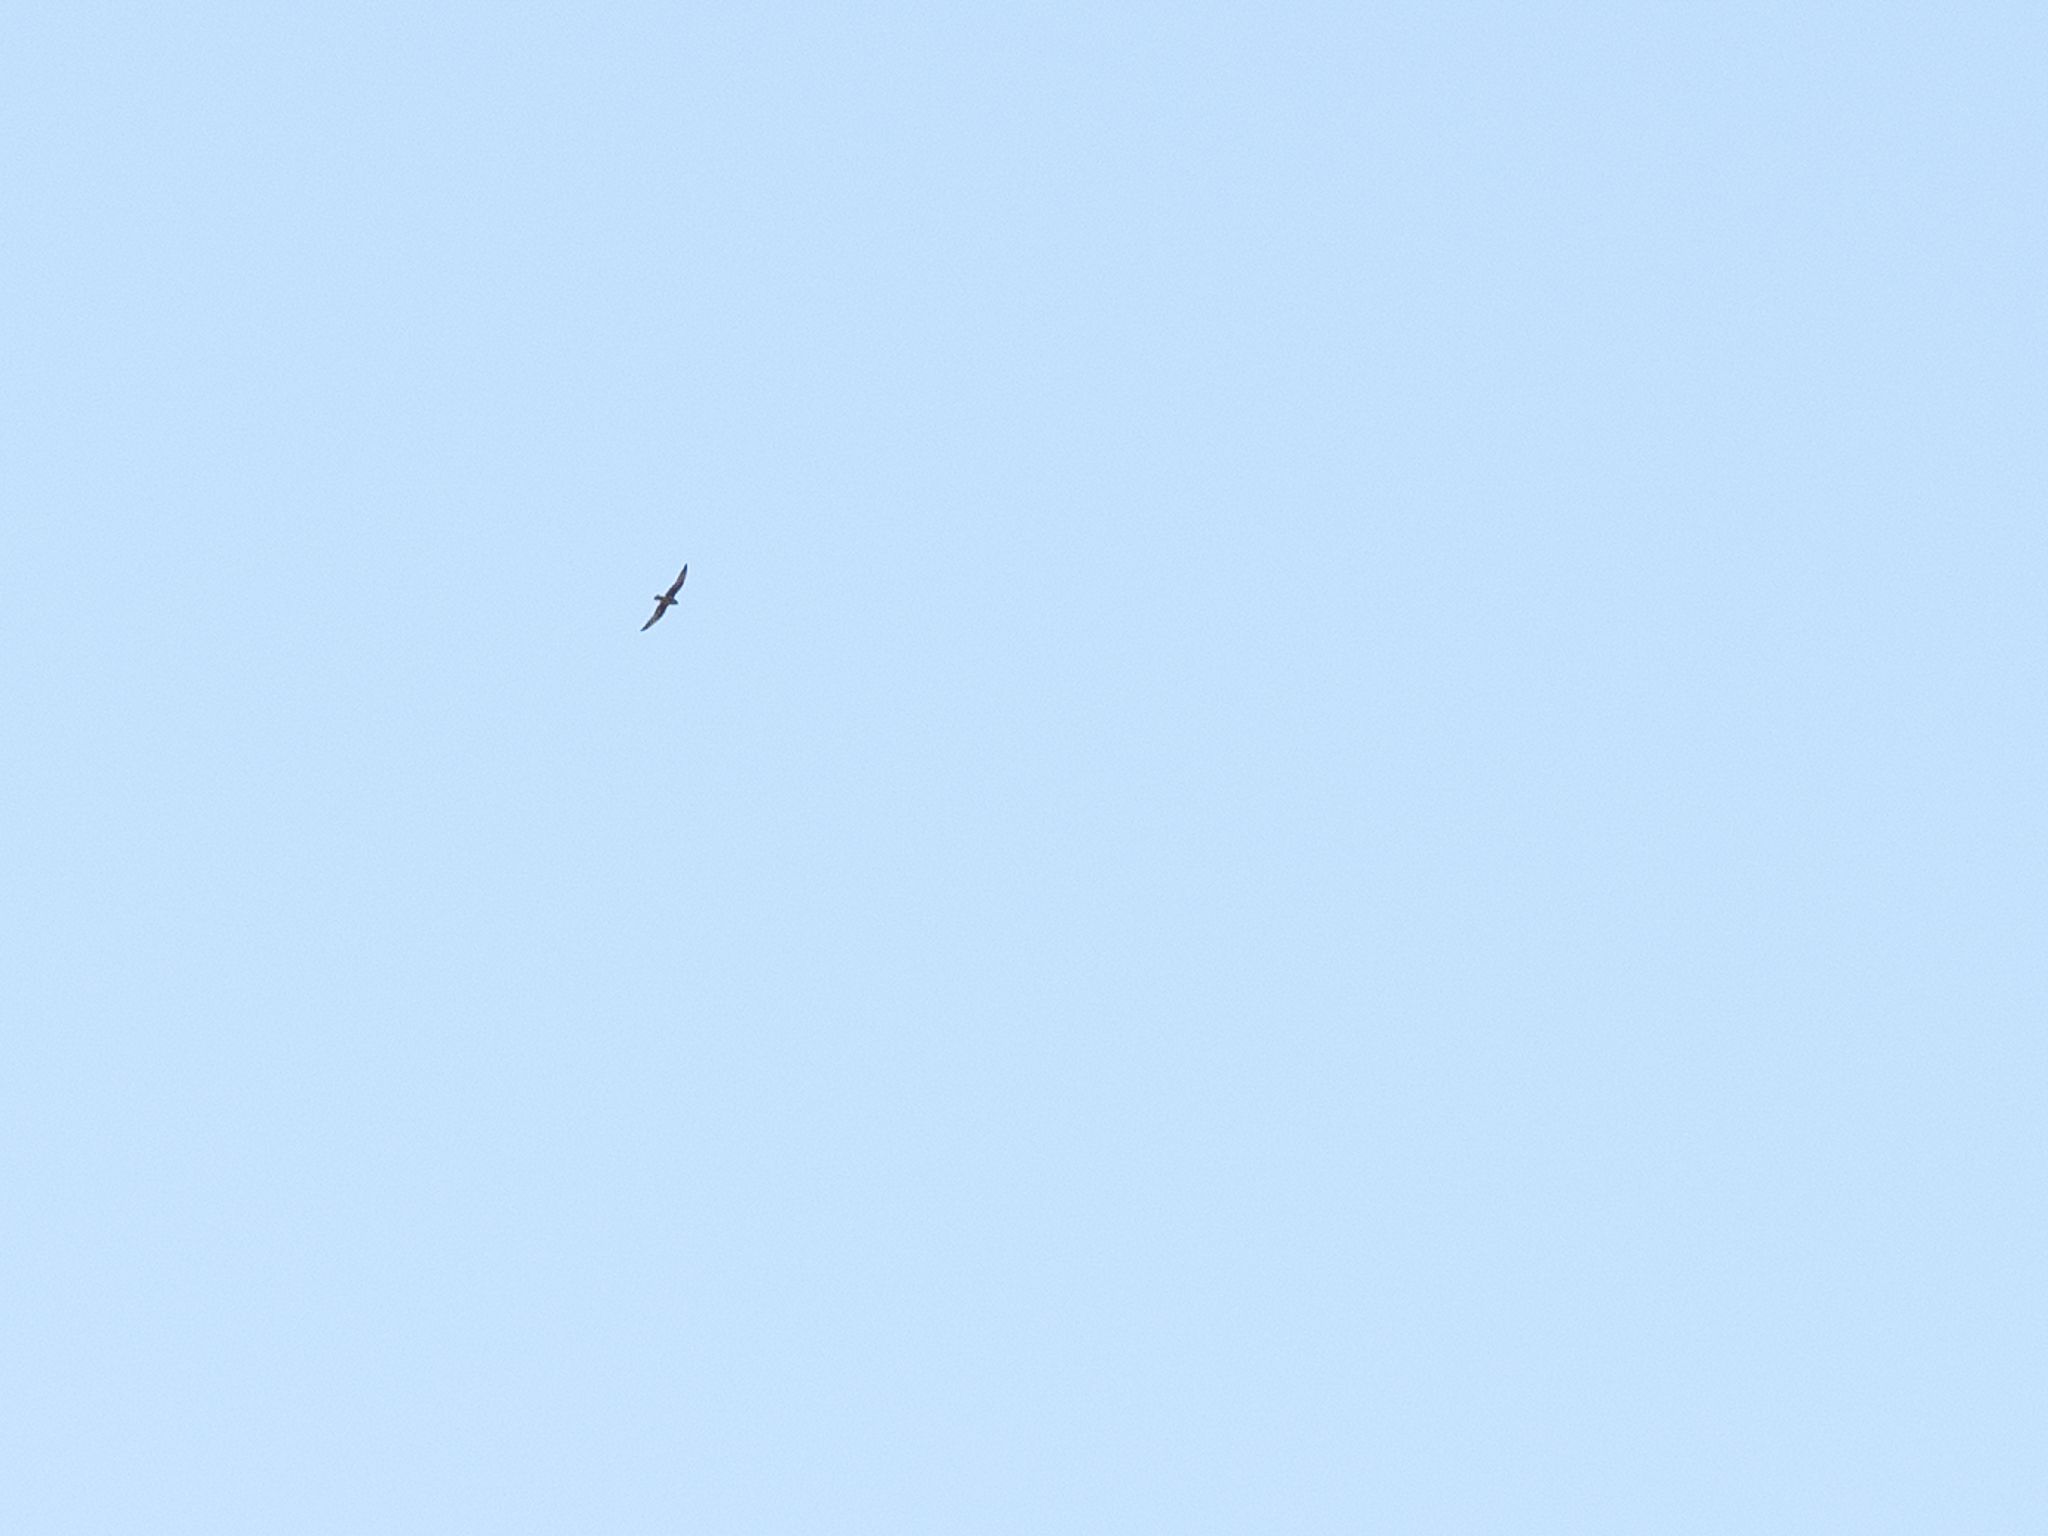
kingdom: Animalia
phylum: Chordata
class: Aves
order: Falconiformes
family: Falconidae
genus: Falco
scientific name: Falco eleonorae
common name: Eleonora's falcon
